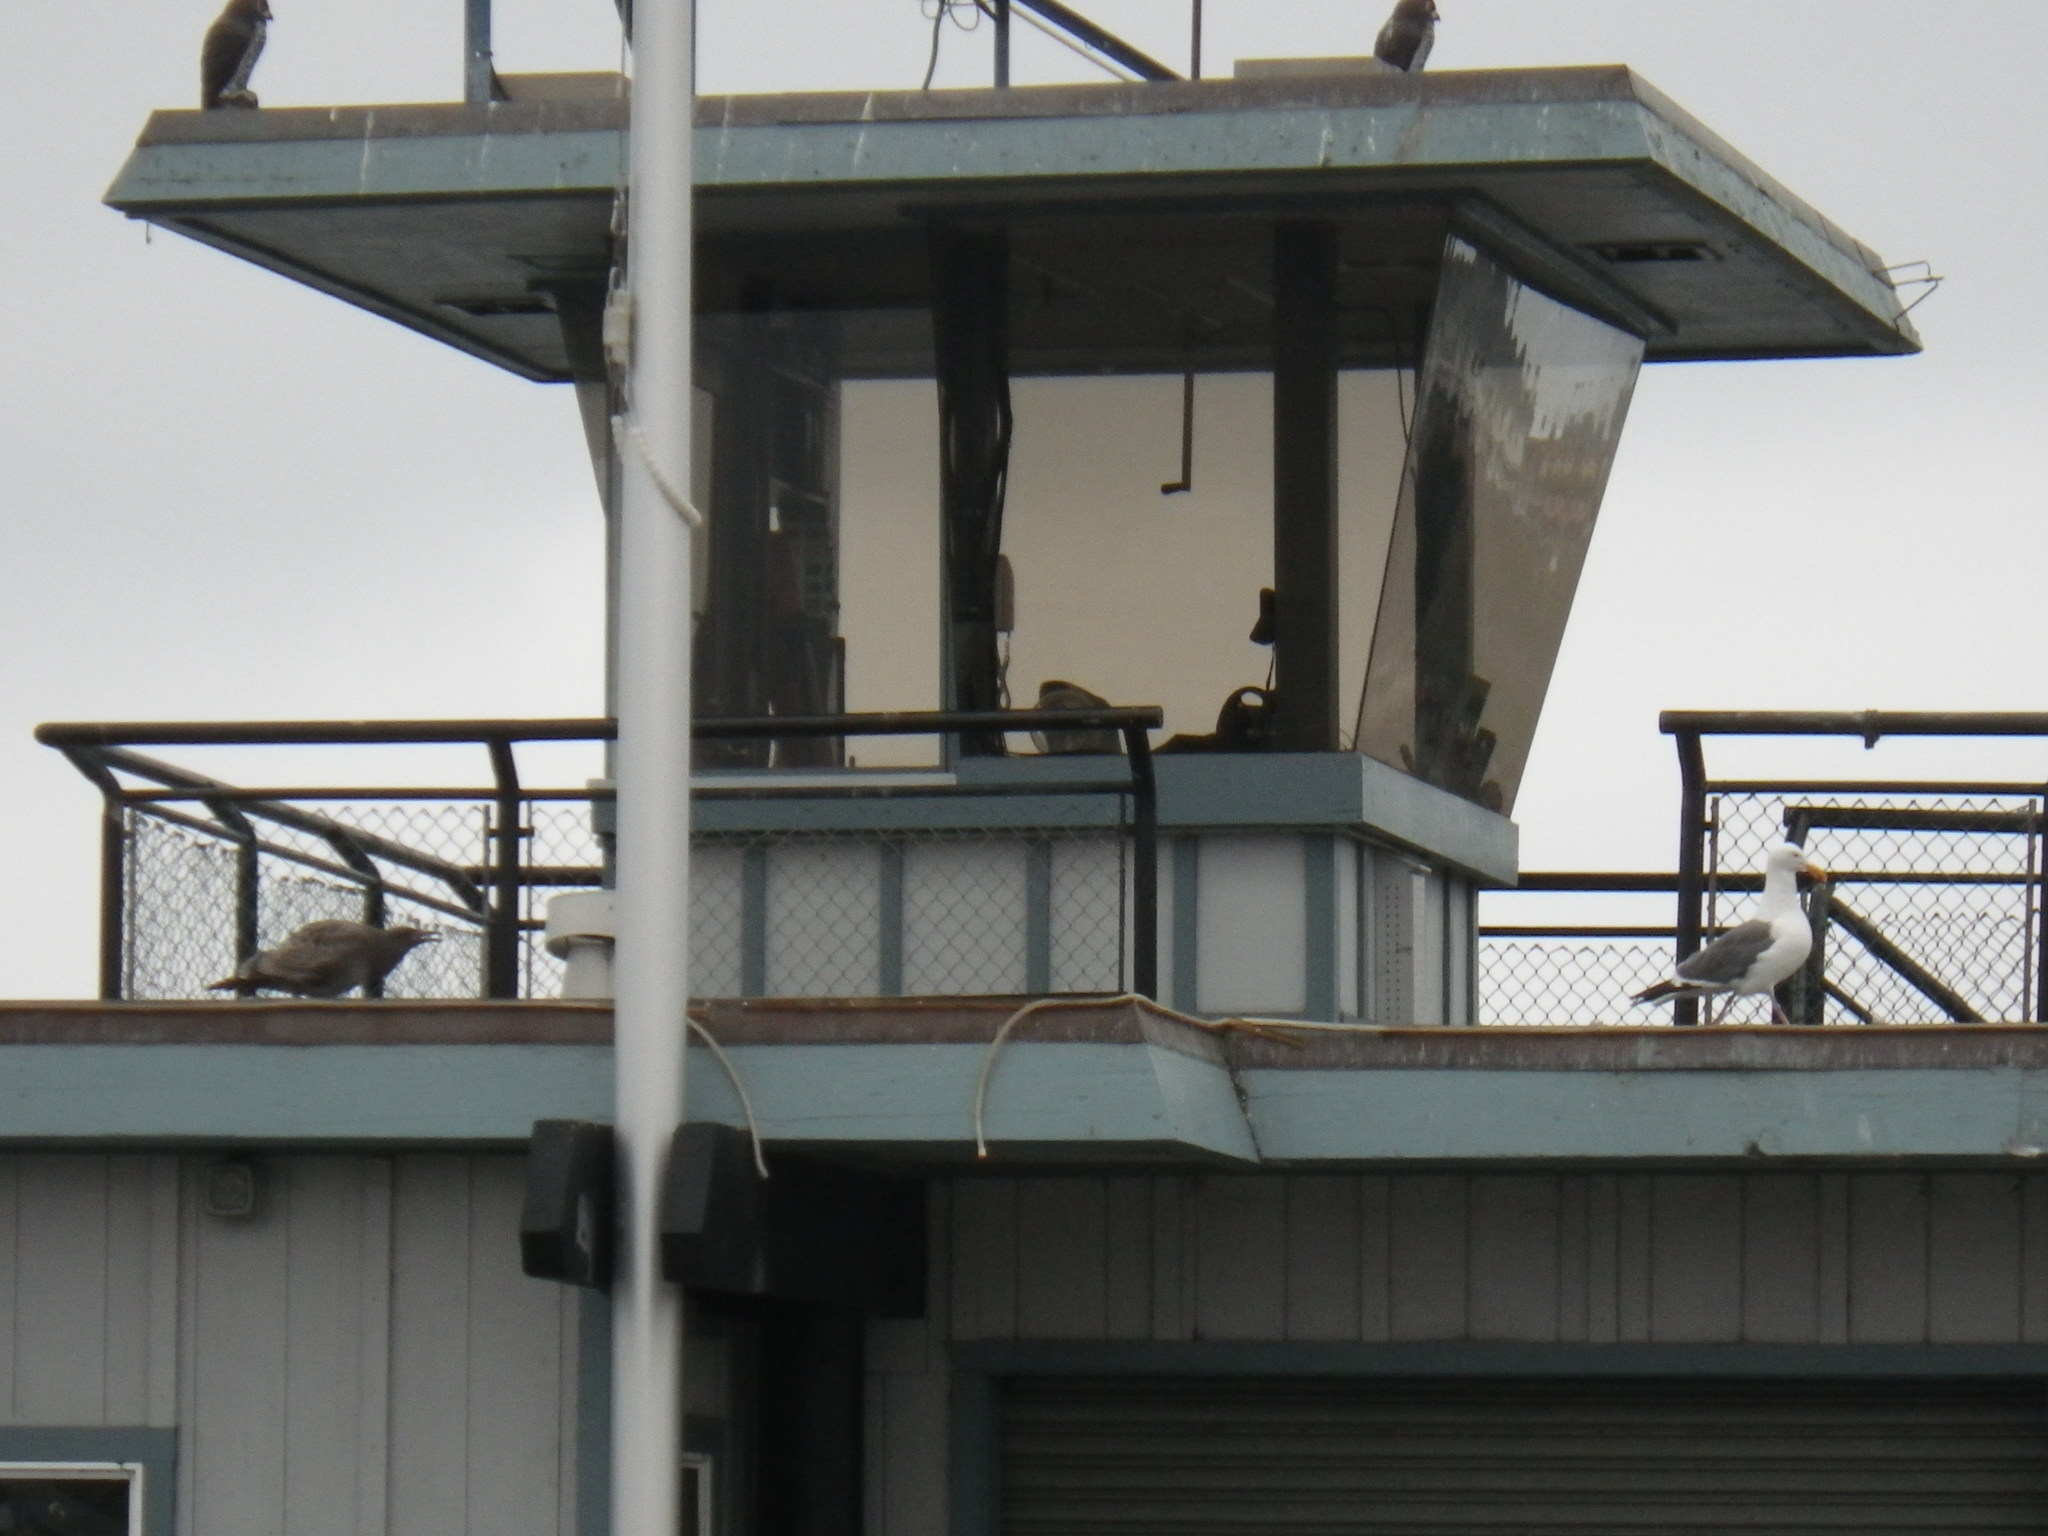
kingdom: Animalia
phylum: Chordata
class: Aves
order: Charadriiformes
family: Laridae
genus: Larus
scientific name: Larus occidentalis
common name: Western gull
